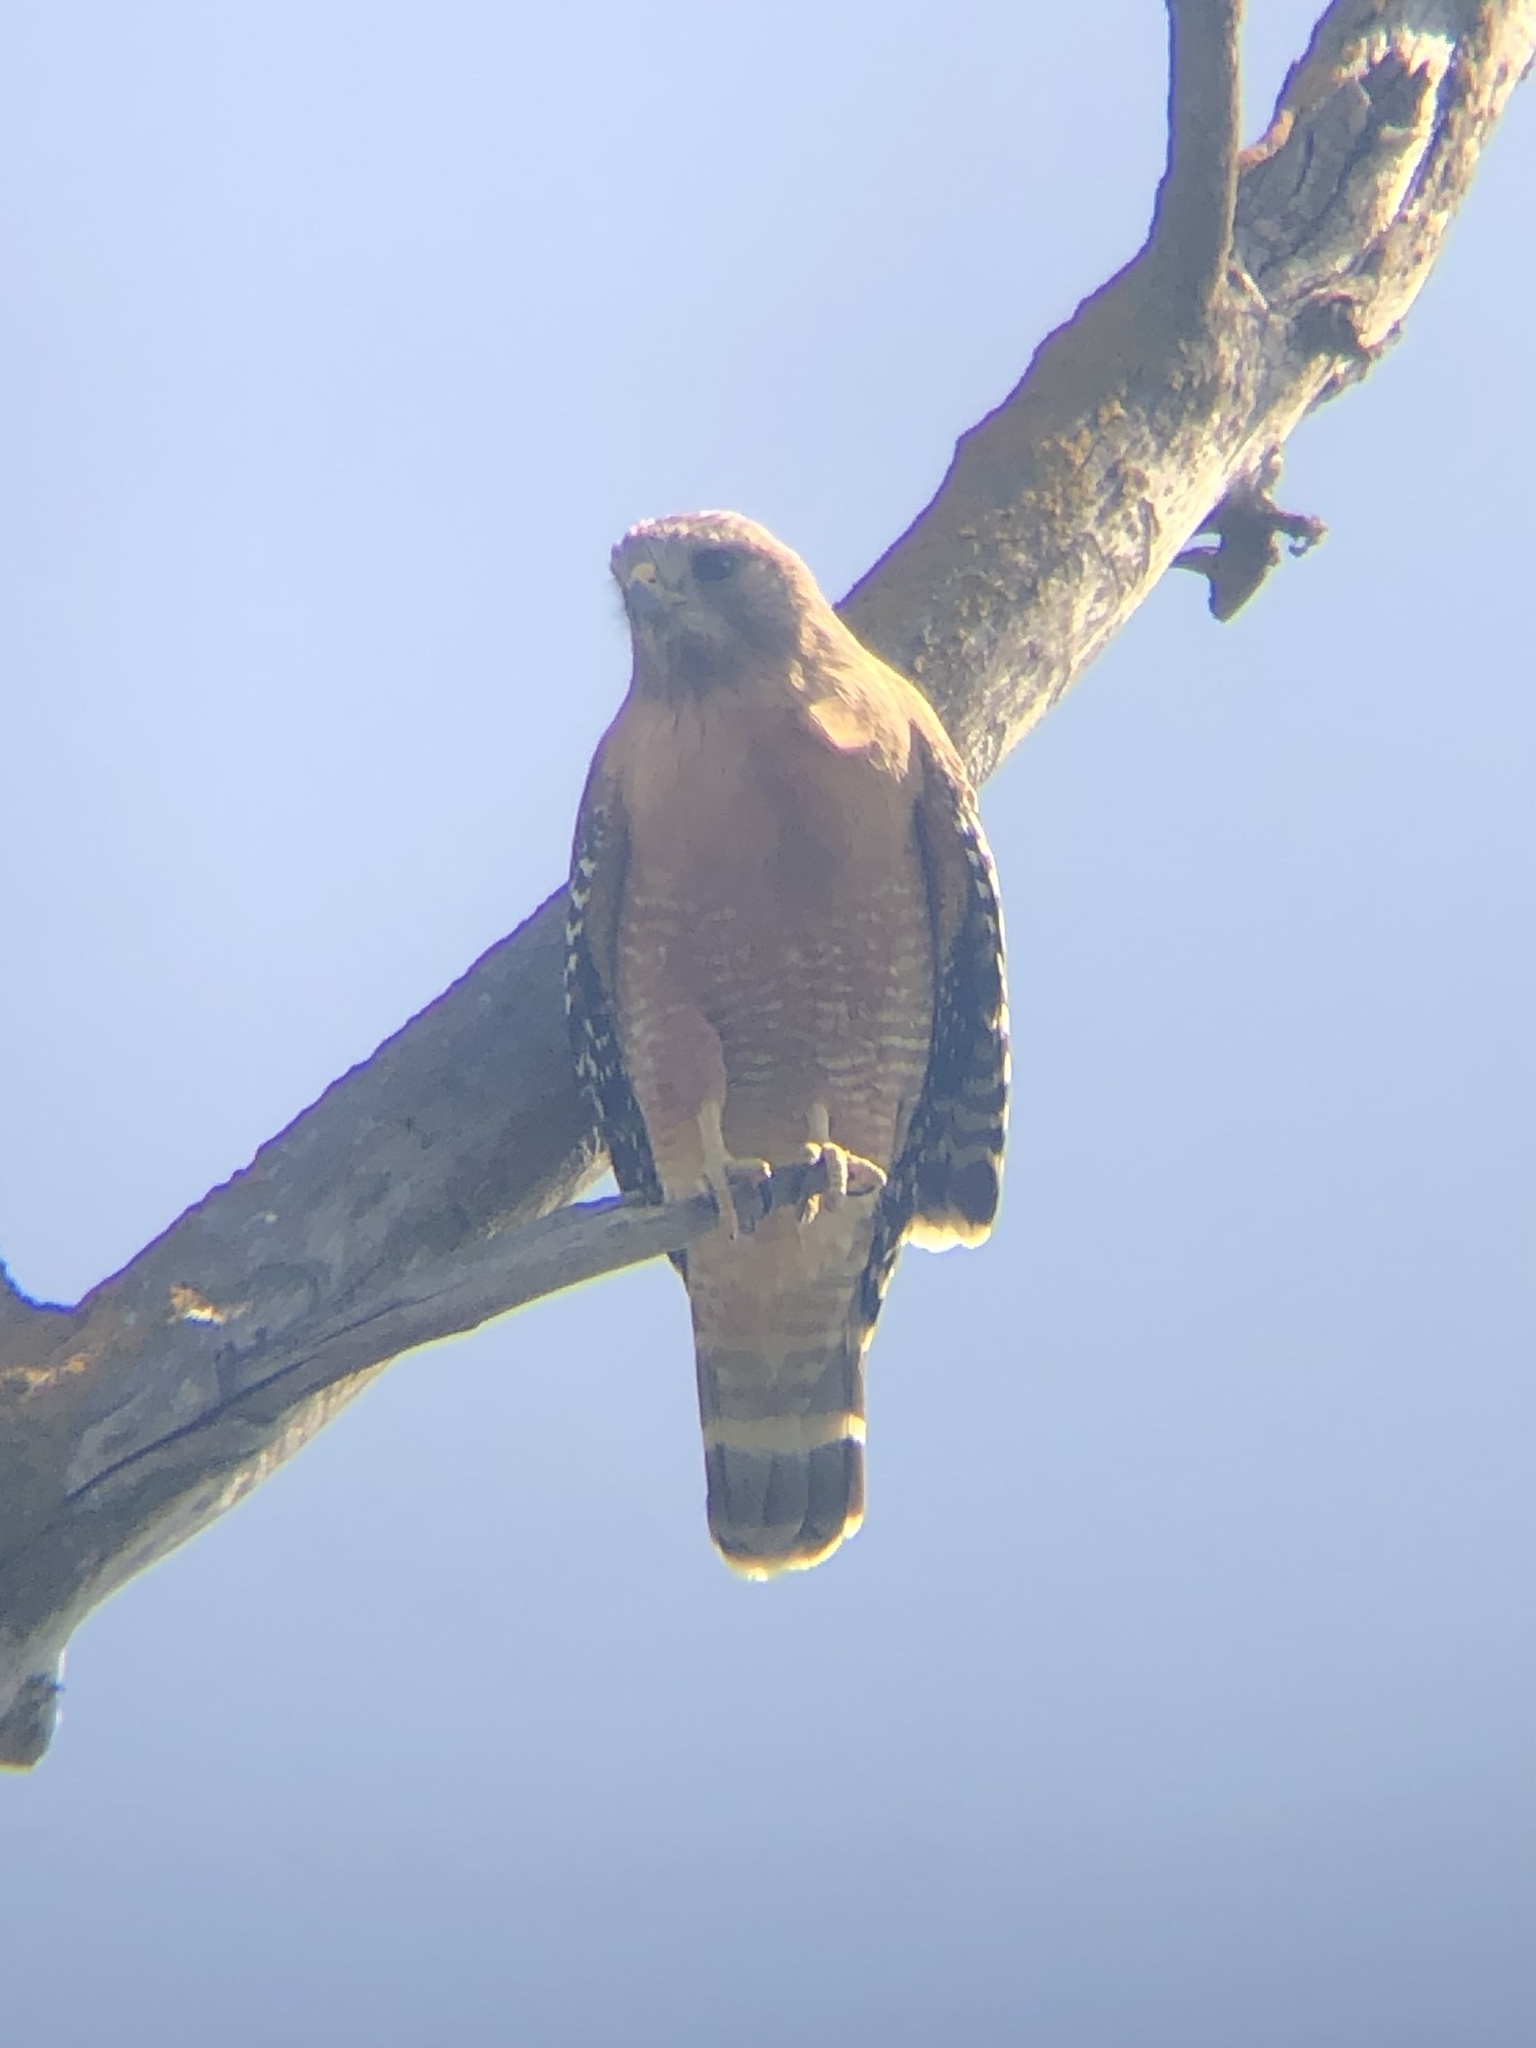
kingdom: Animalia
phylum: Chordata
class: Aves
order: Accipitriformes
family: Accipitridae
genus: Buteo
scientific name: Buteo lineatus
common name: Red-shouldered hawk
